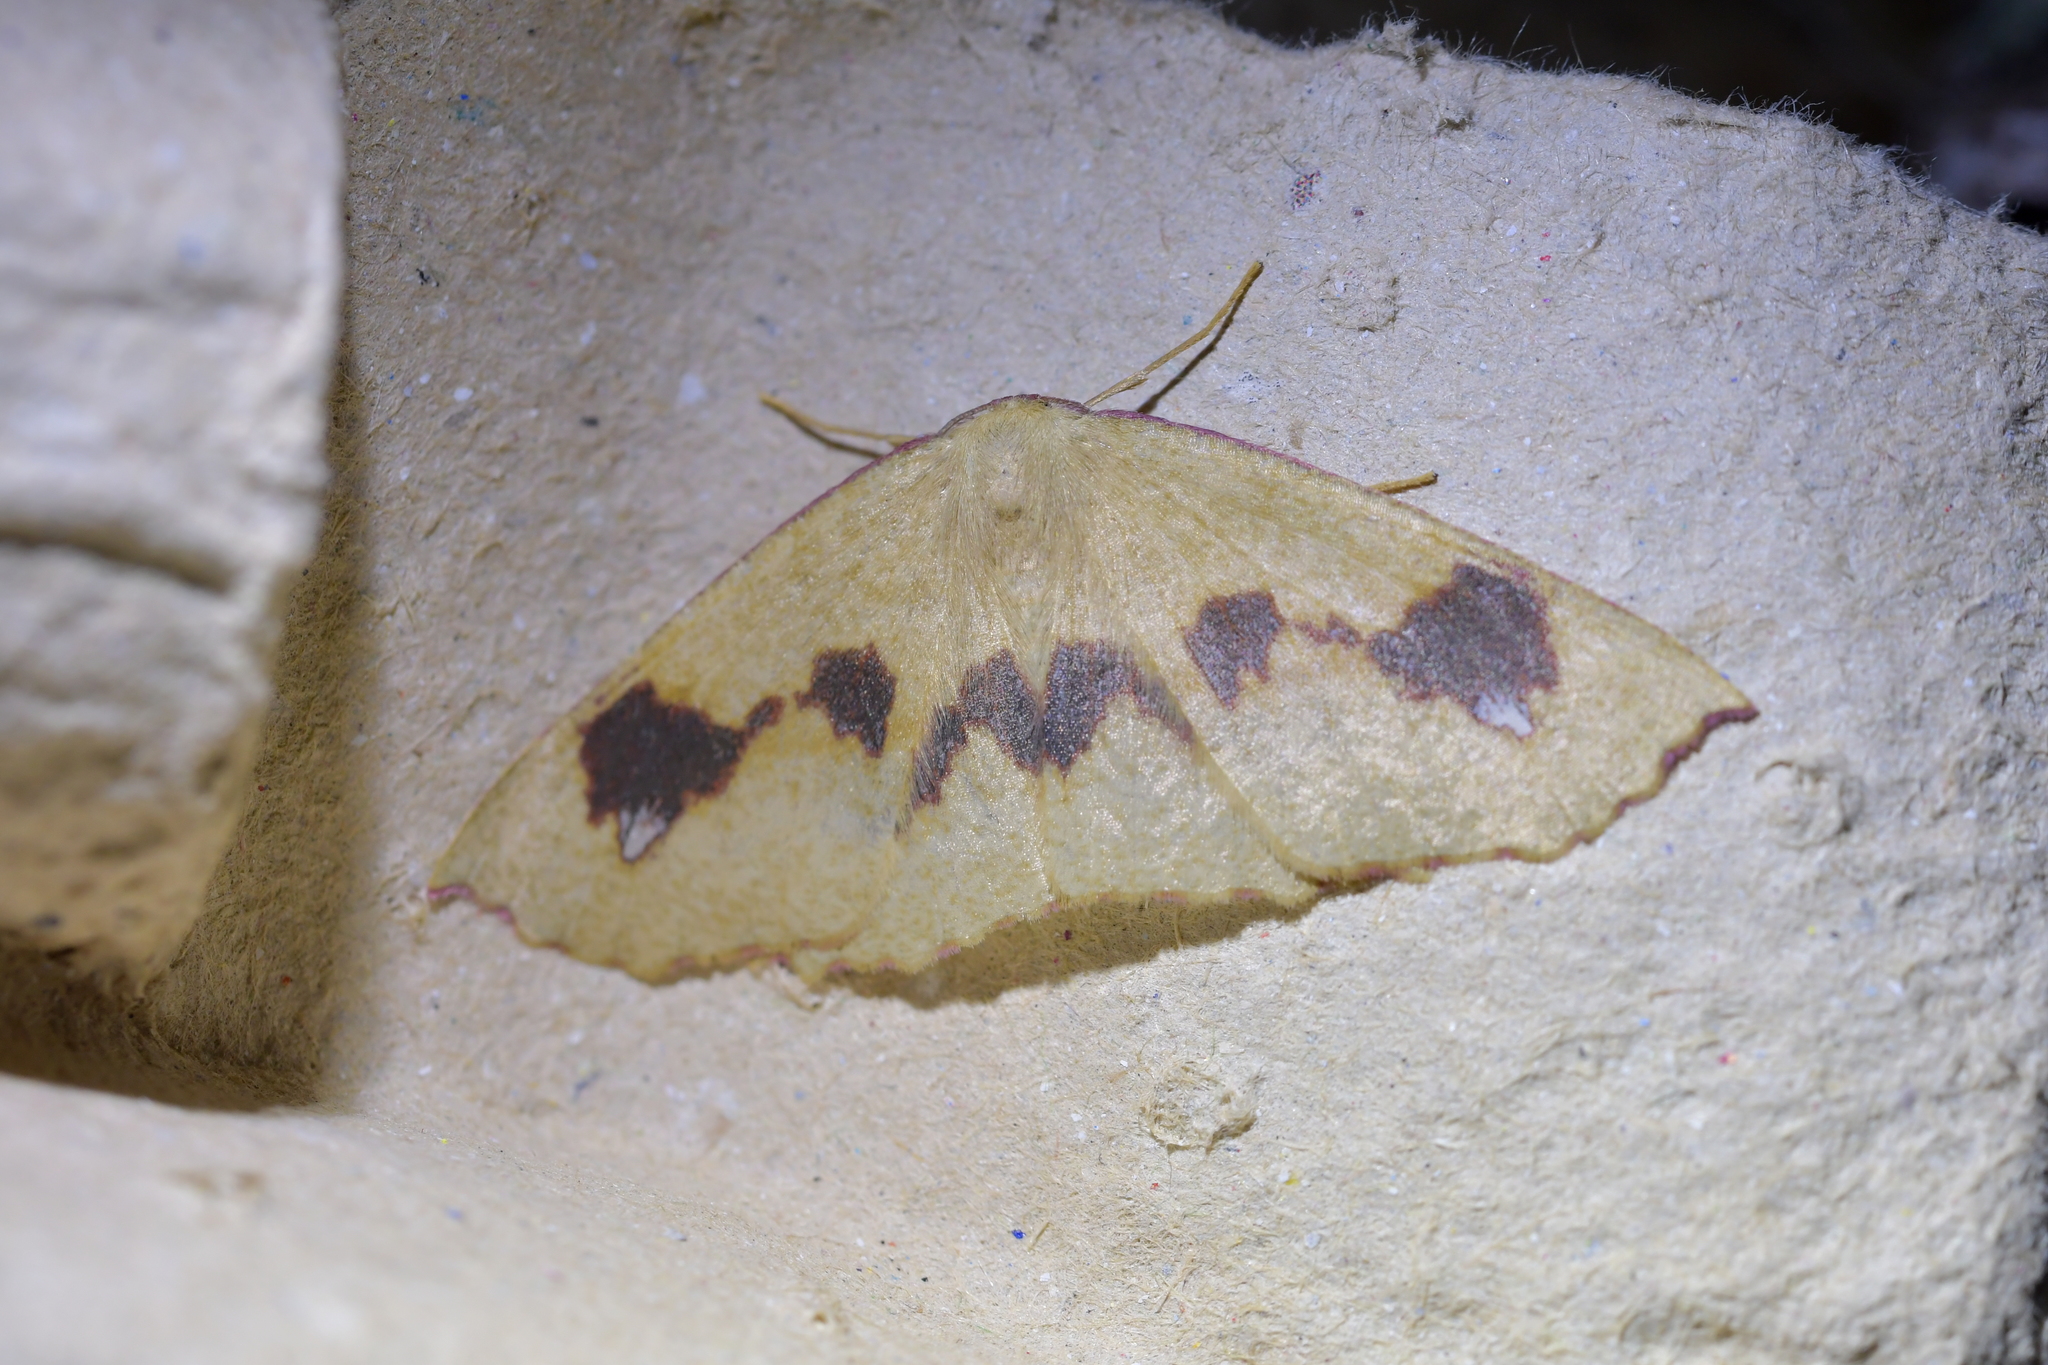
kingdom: Animalia
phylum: Arthropoda
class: Insecta
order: Lepidoptera
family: Geometridae
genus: Xyridacma
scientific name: Xyridacma alectoraria
